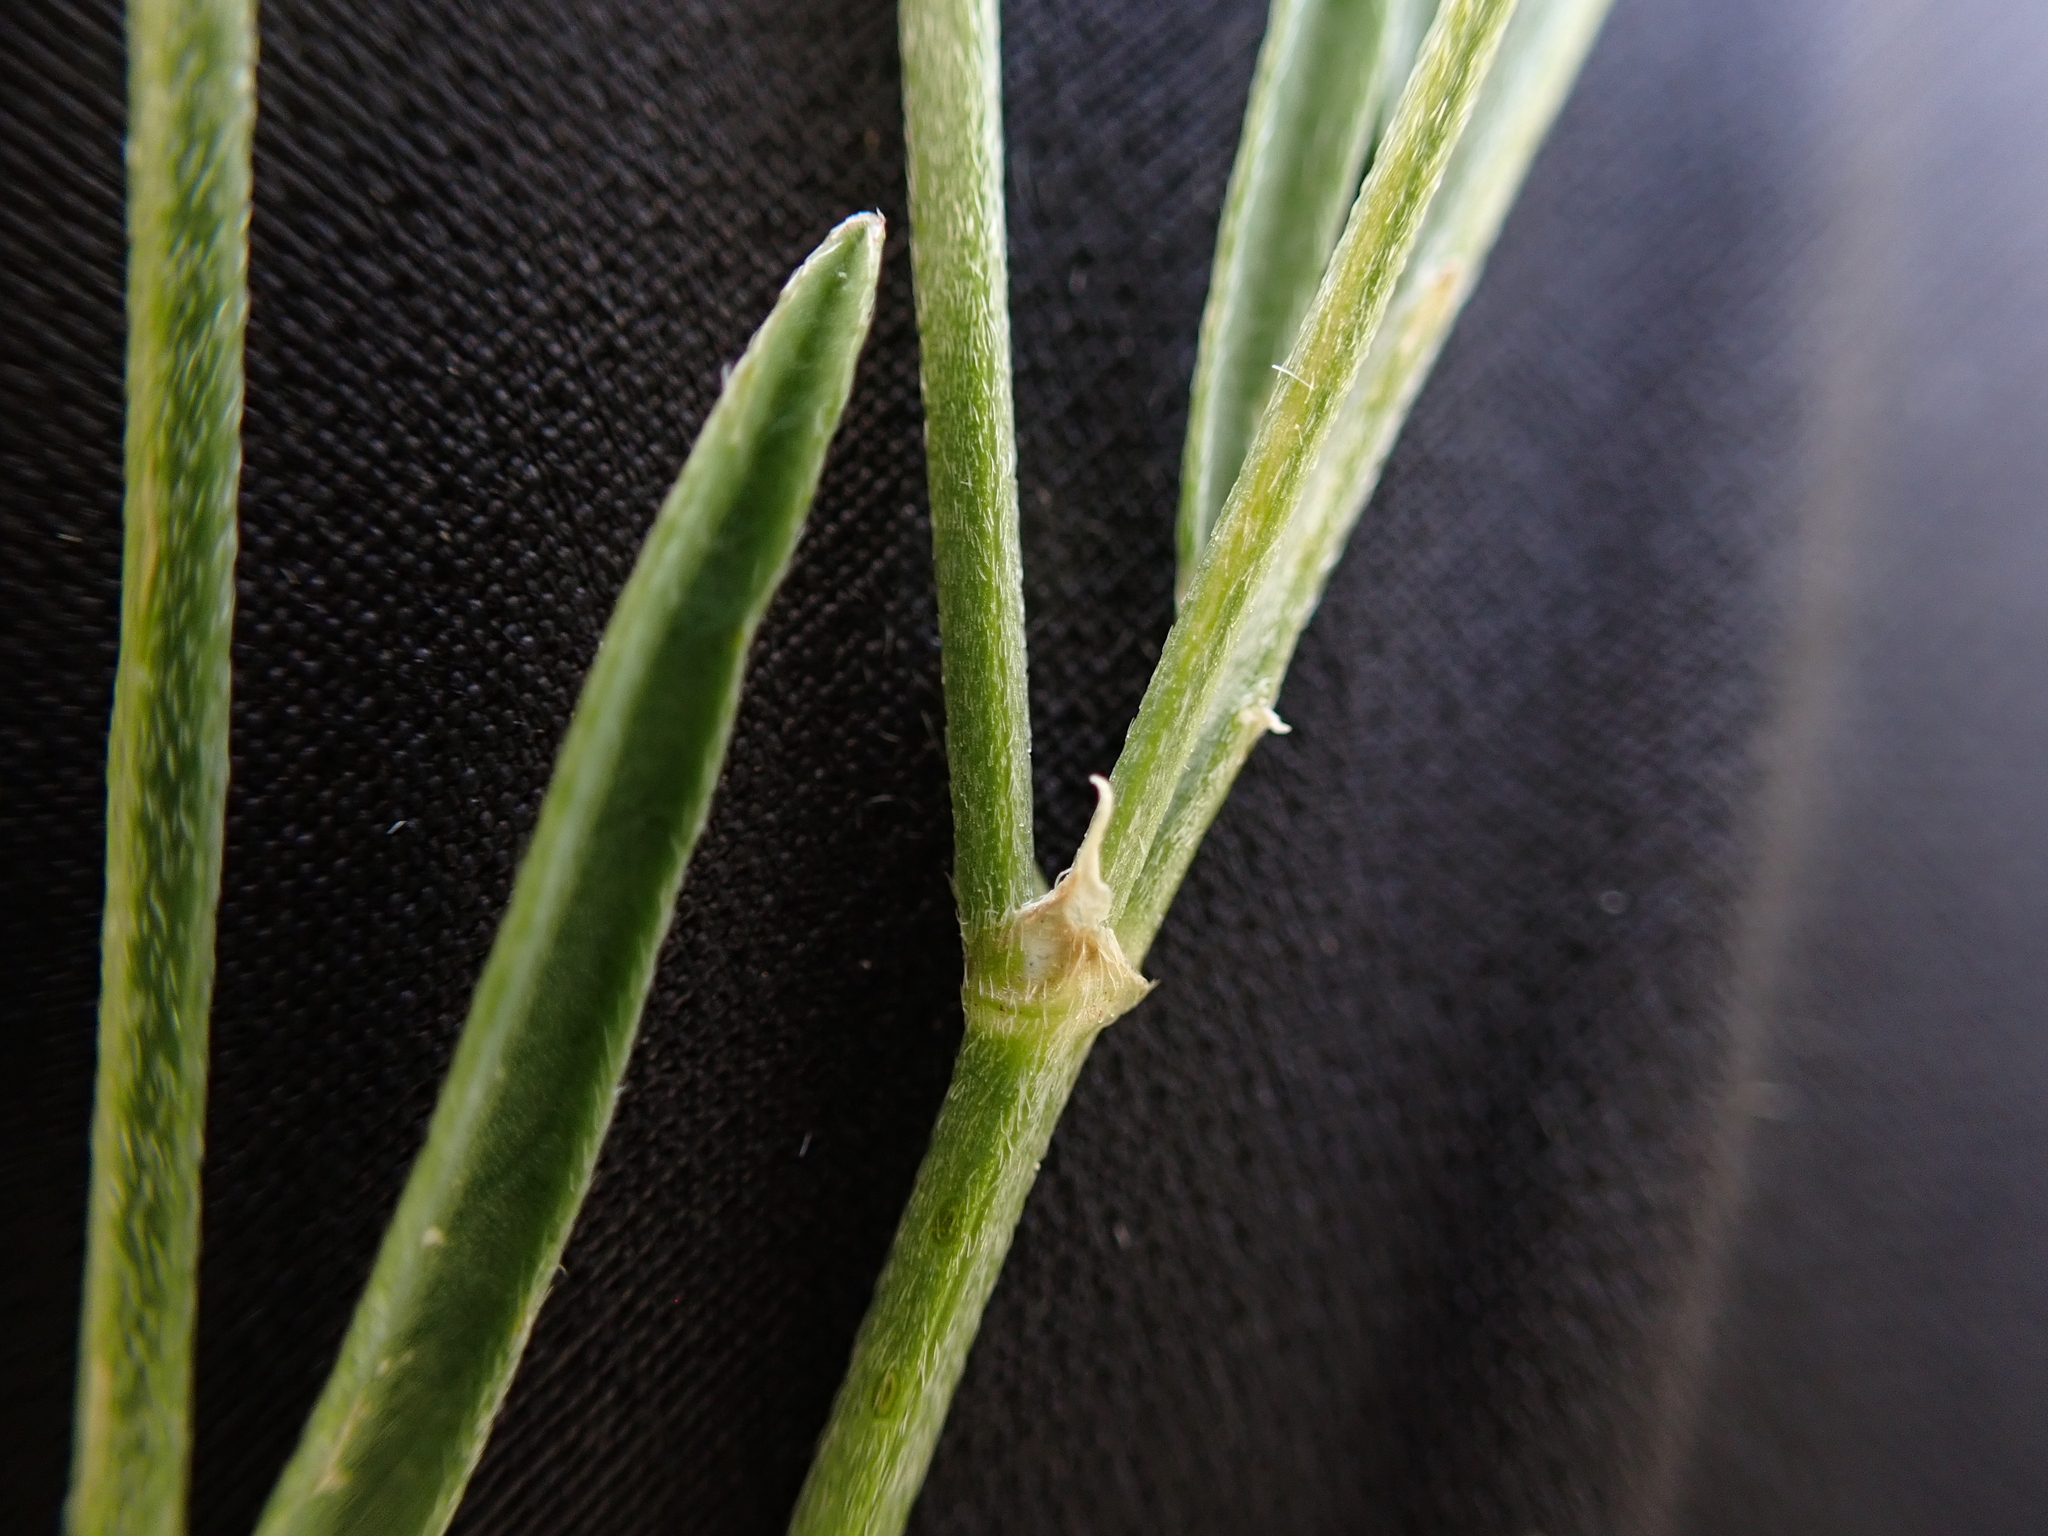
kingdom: Plantae
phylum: Tracheophyta
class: Magnoliopsida
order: Fabales
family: Fabaceae
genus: Astragalus
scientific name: Astragalus miser
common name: Timber milkvetch
